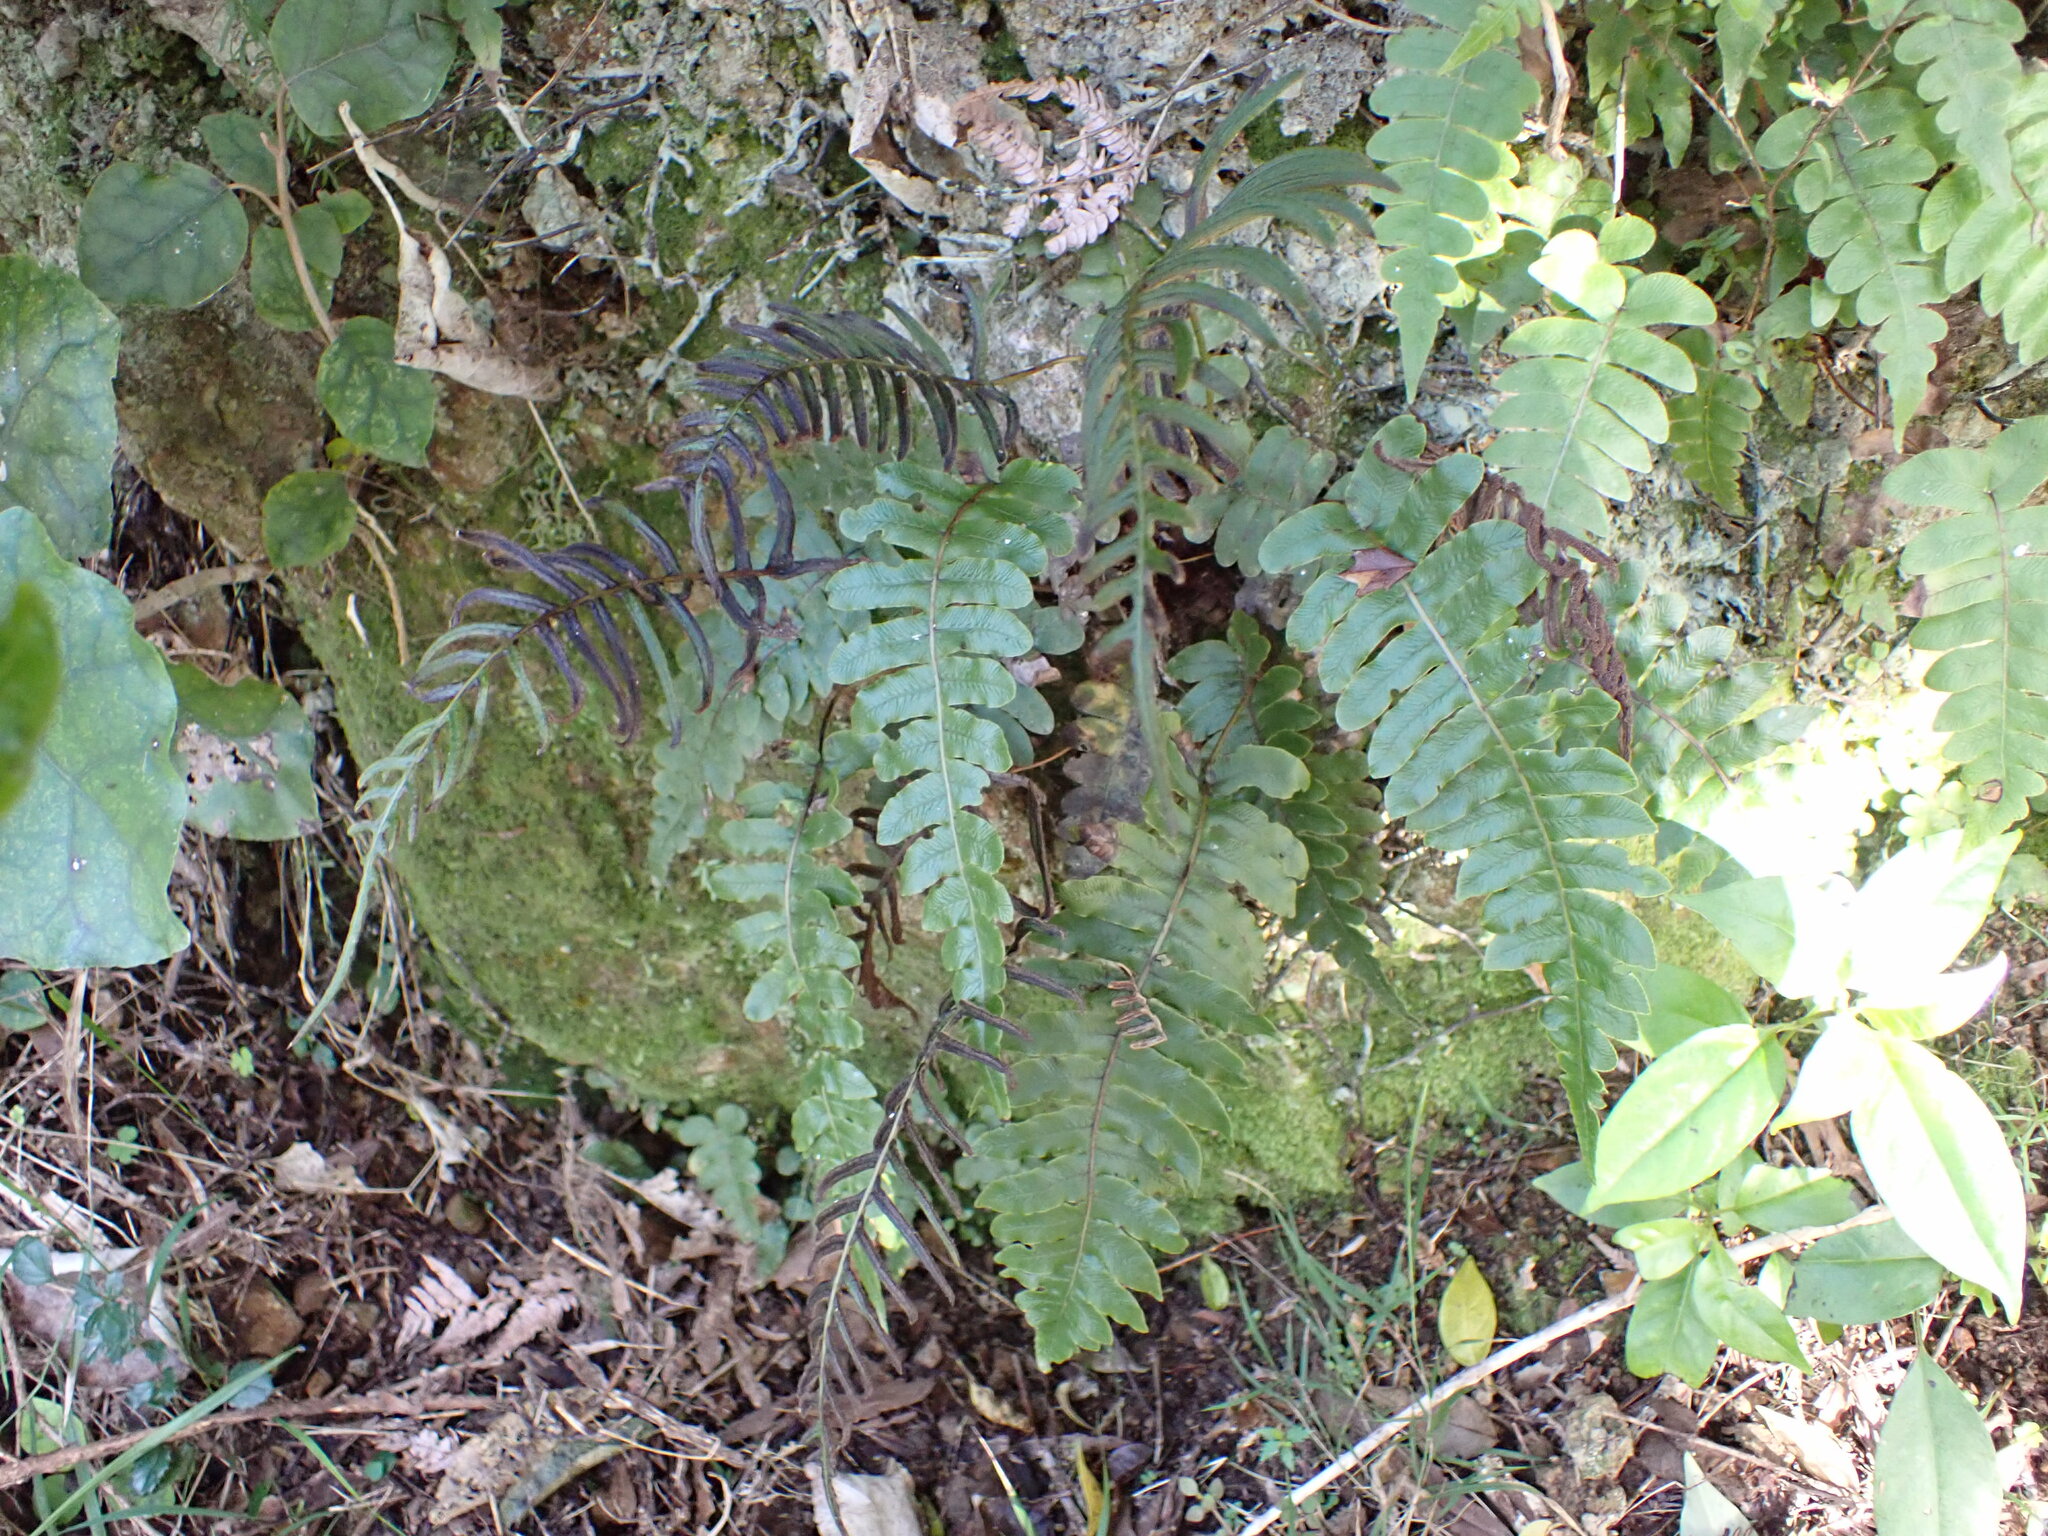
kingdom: Plantae
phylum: Tracheophyta
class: Polypodiopsida
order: Polypodiales
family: Blechnaceae
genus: Cranfillia
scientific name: Cranfillia deltoides
